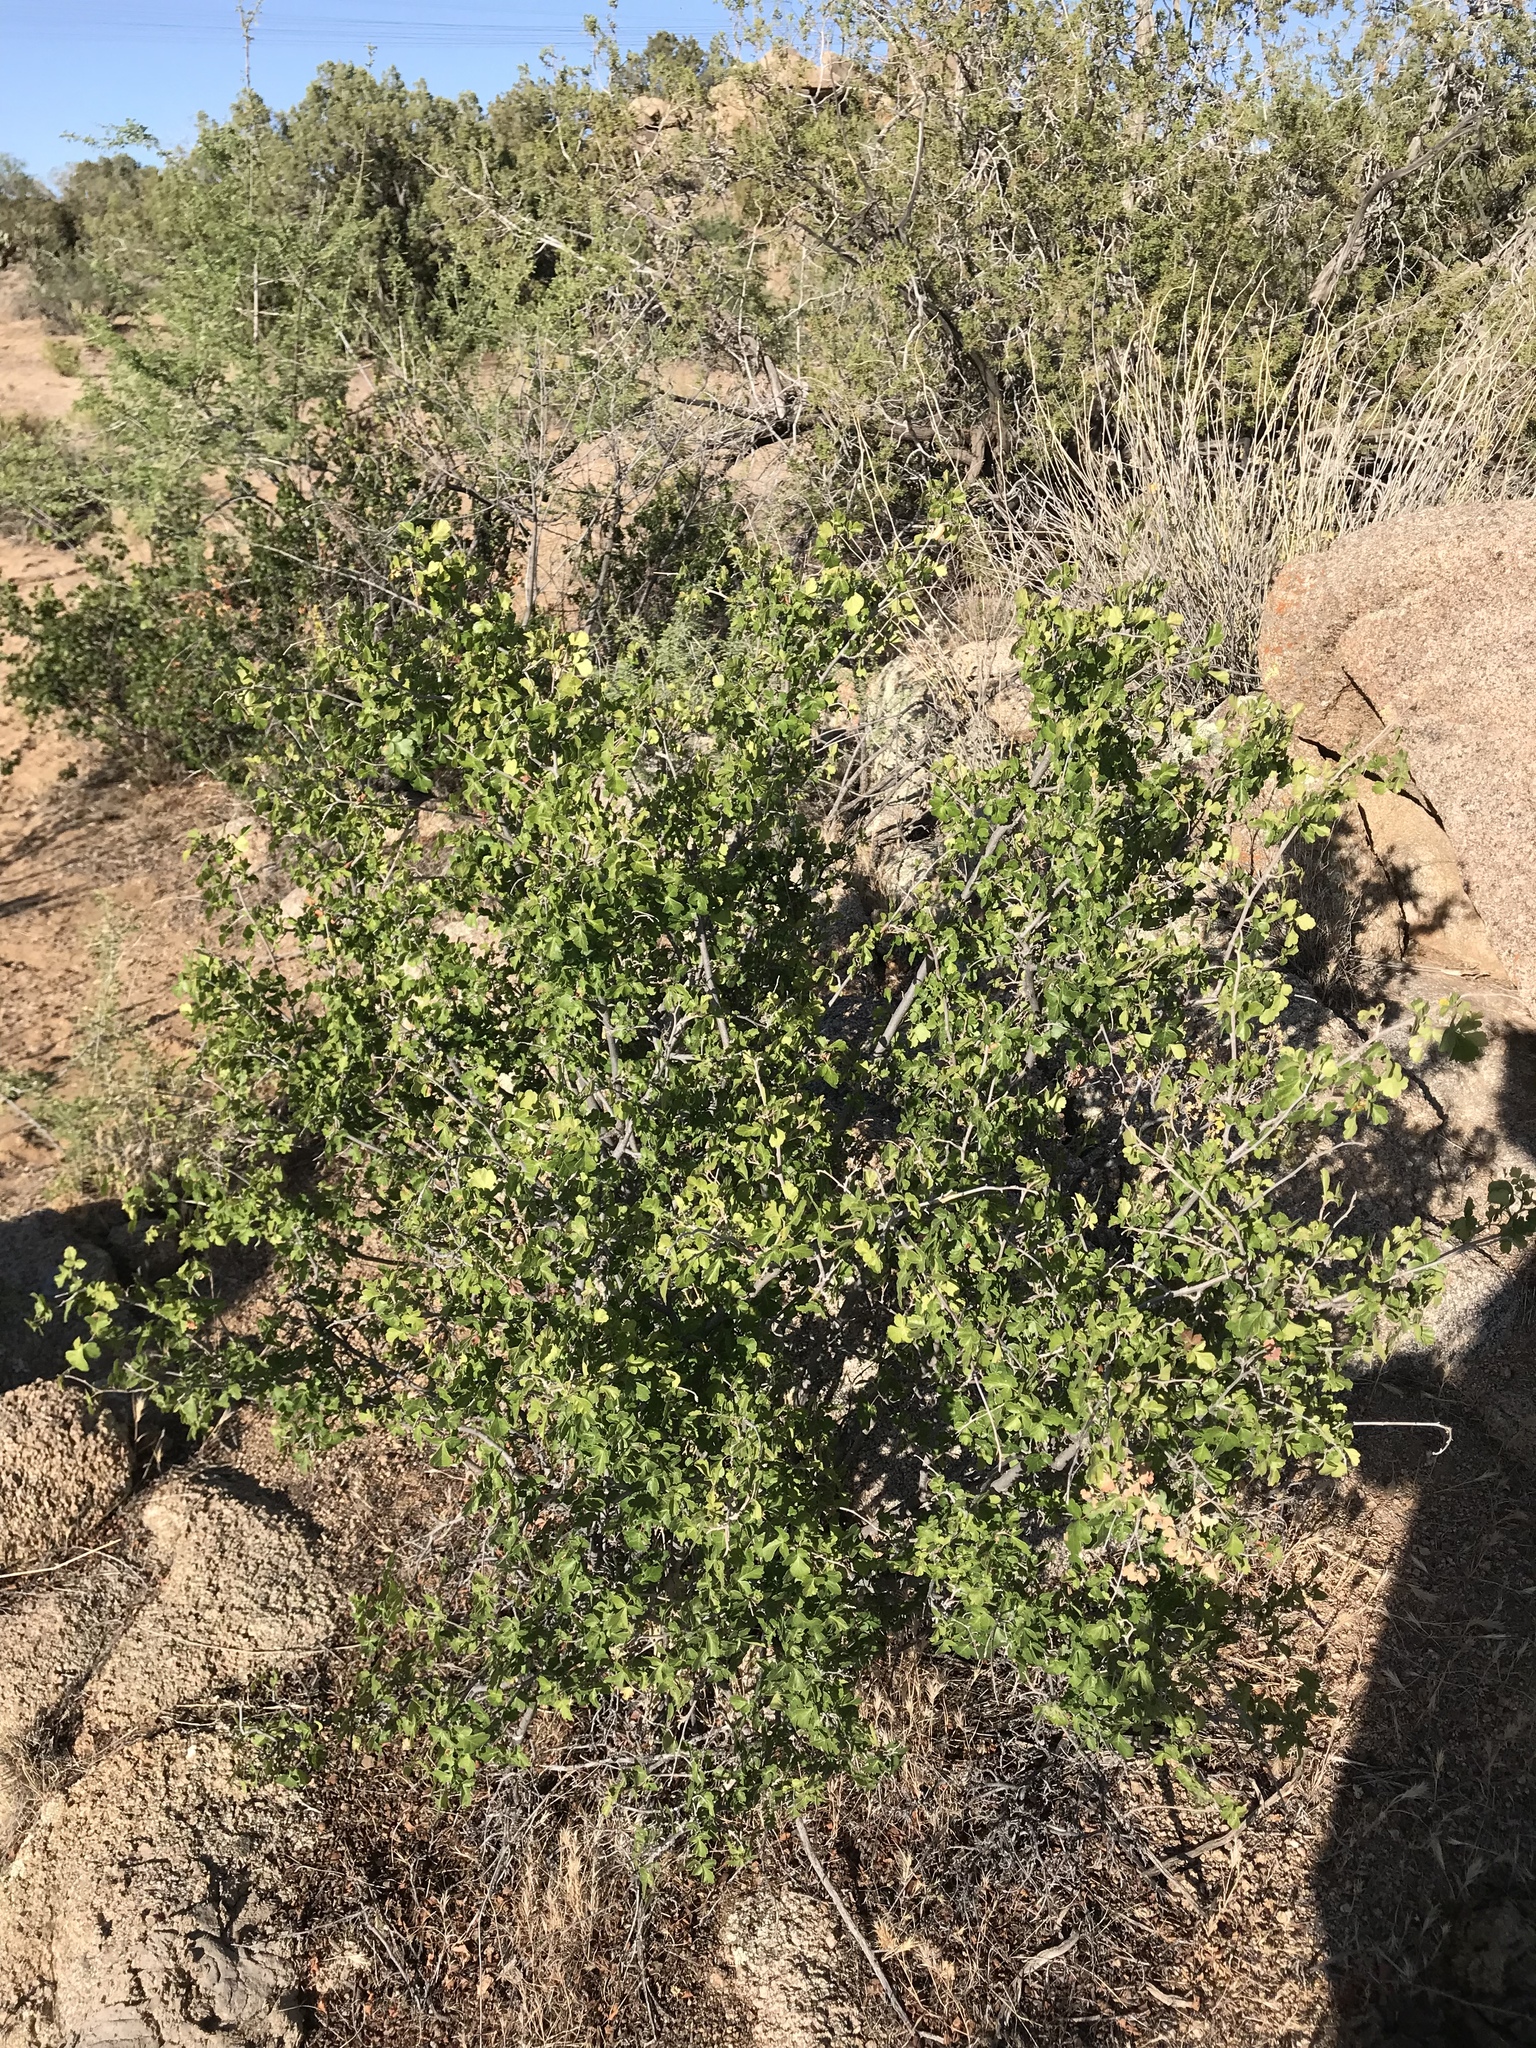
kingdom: Plantae
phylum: Tracheophyta
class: Magnoliopsida
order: Sapindales
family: Anacardiaceae
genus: Rhus
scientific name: Rhus aromatica
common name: Aromatic sumac
